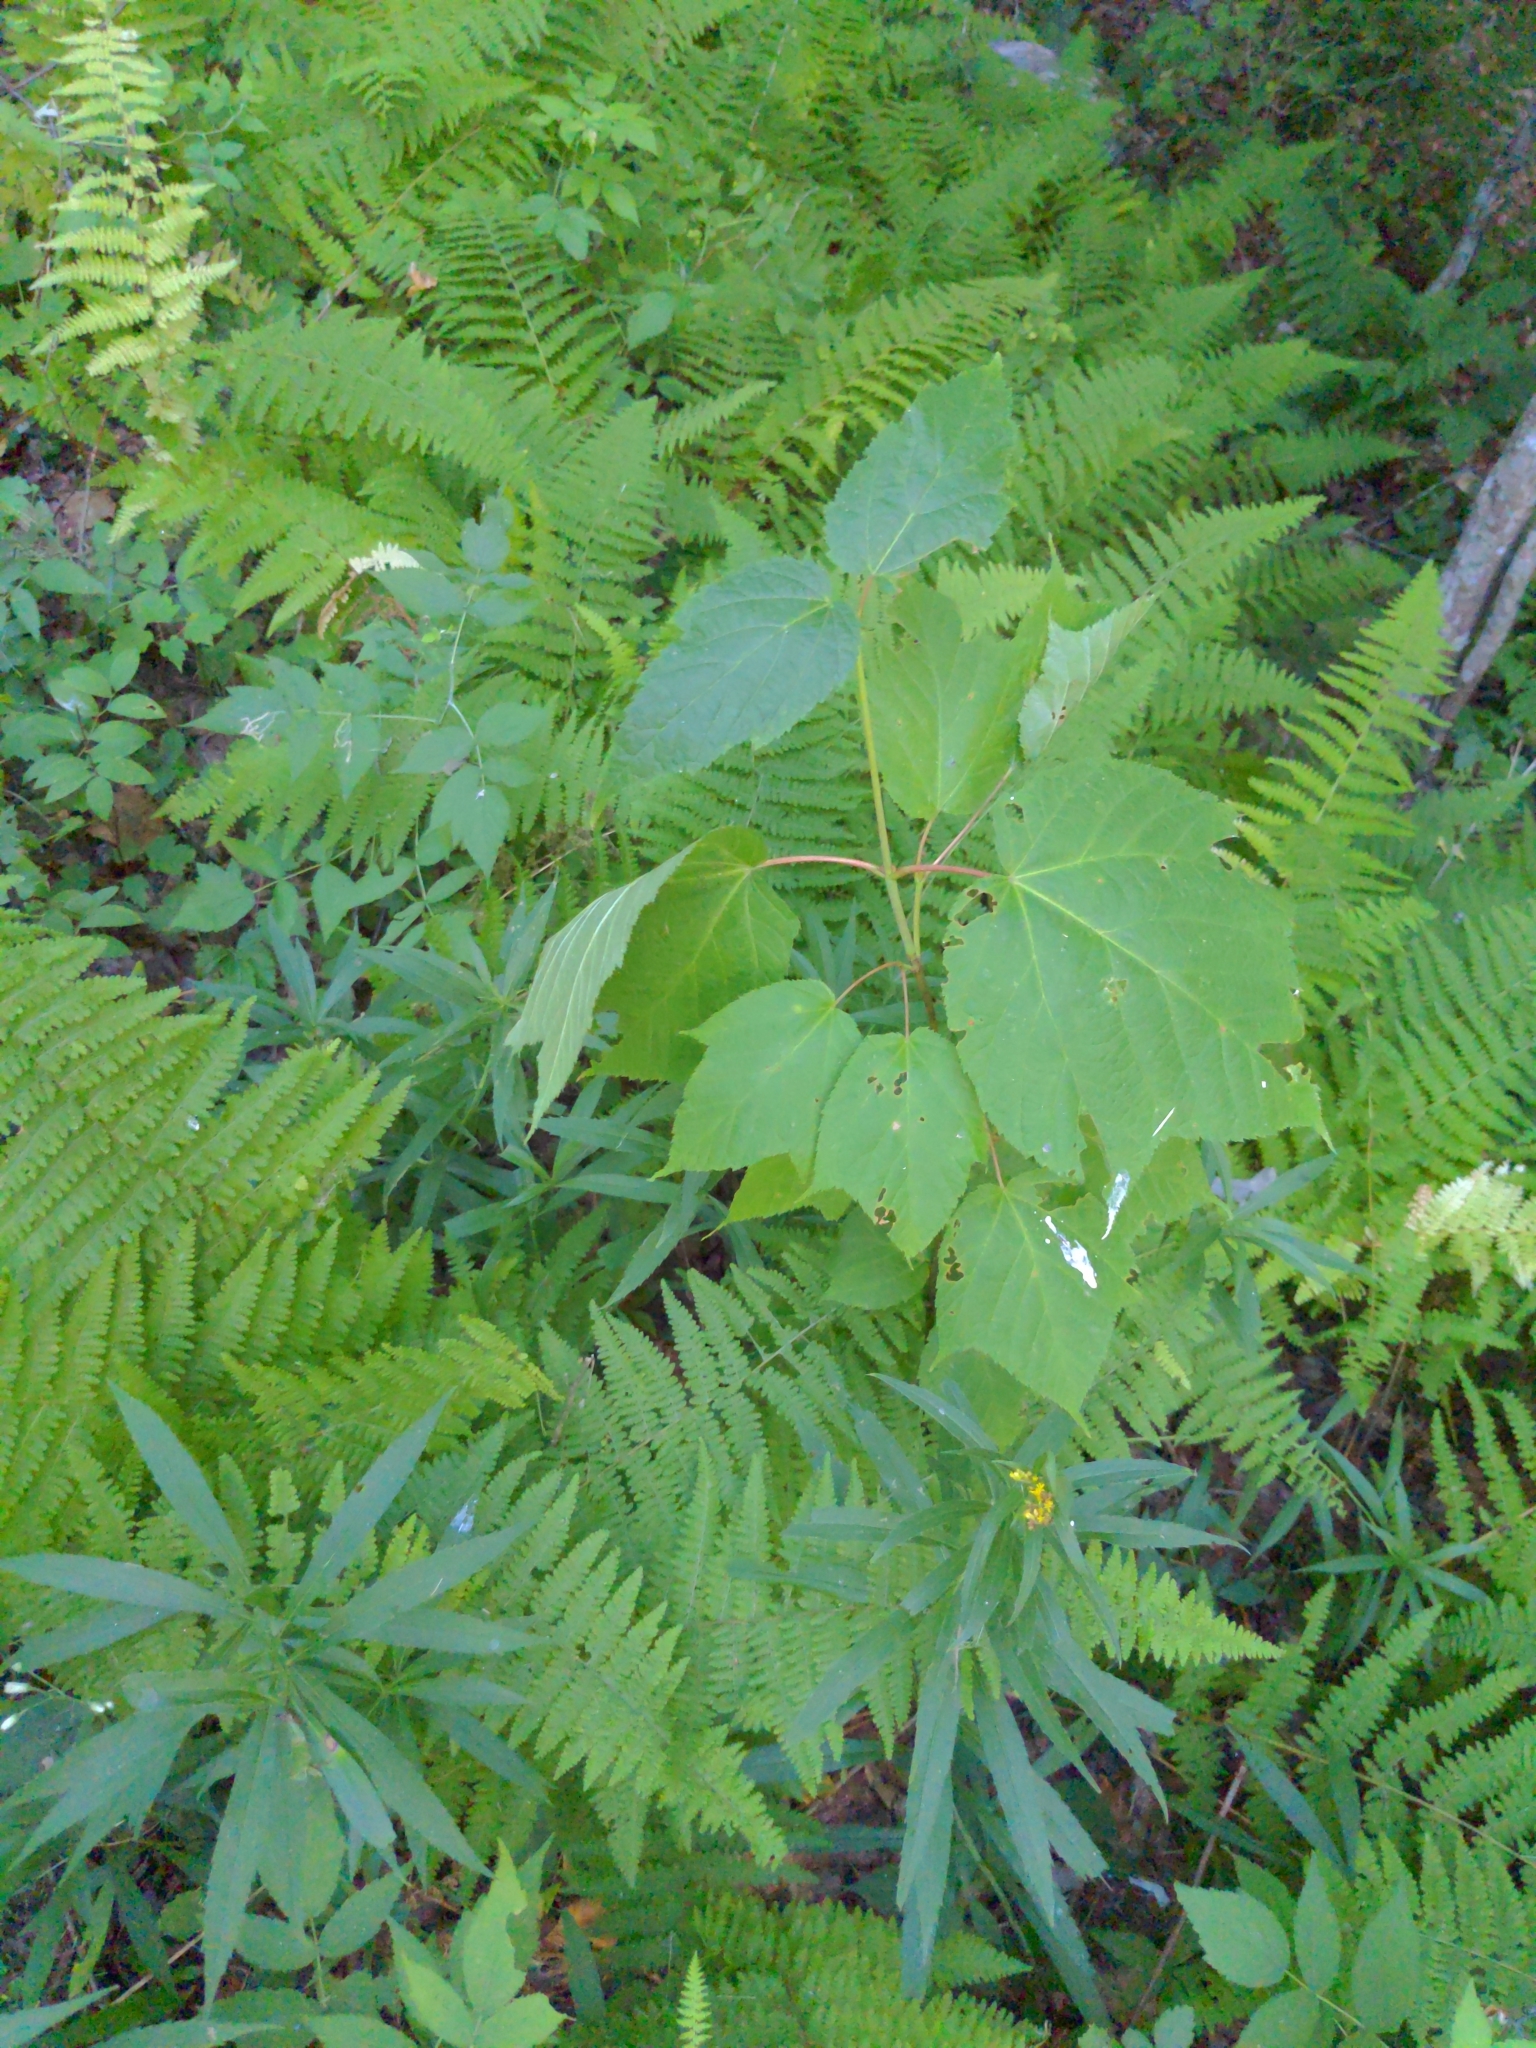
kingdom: Plantae
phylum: Tracheophyta
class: Magnoliopsida
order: Sapindales
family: Sapindaceae
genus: Acer
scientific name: Acer pensylvanicum
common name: Moosewood
